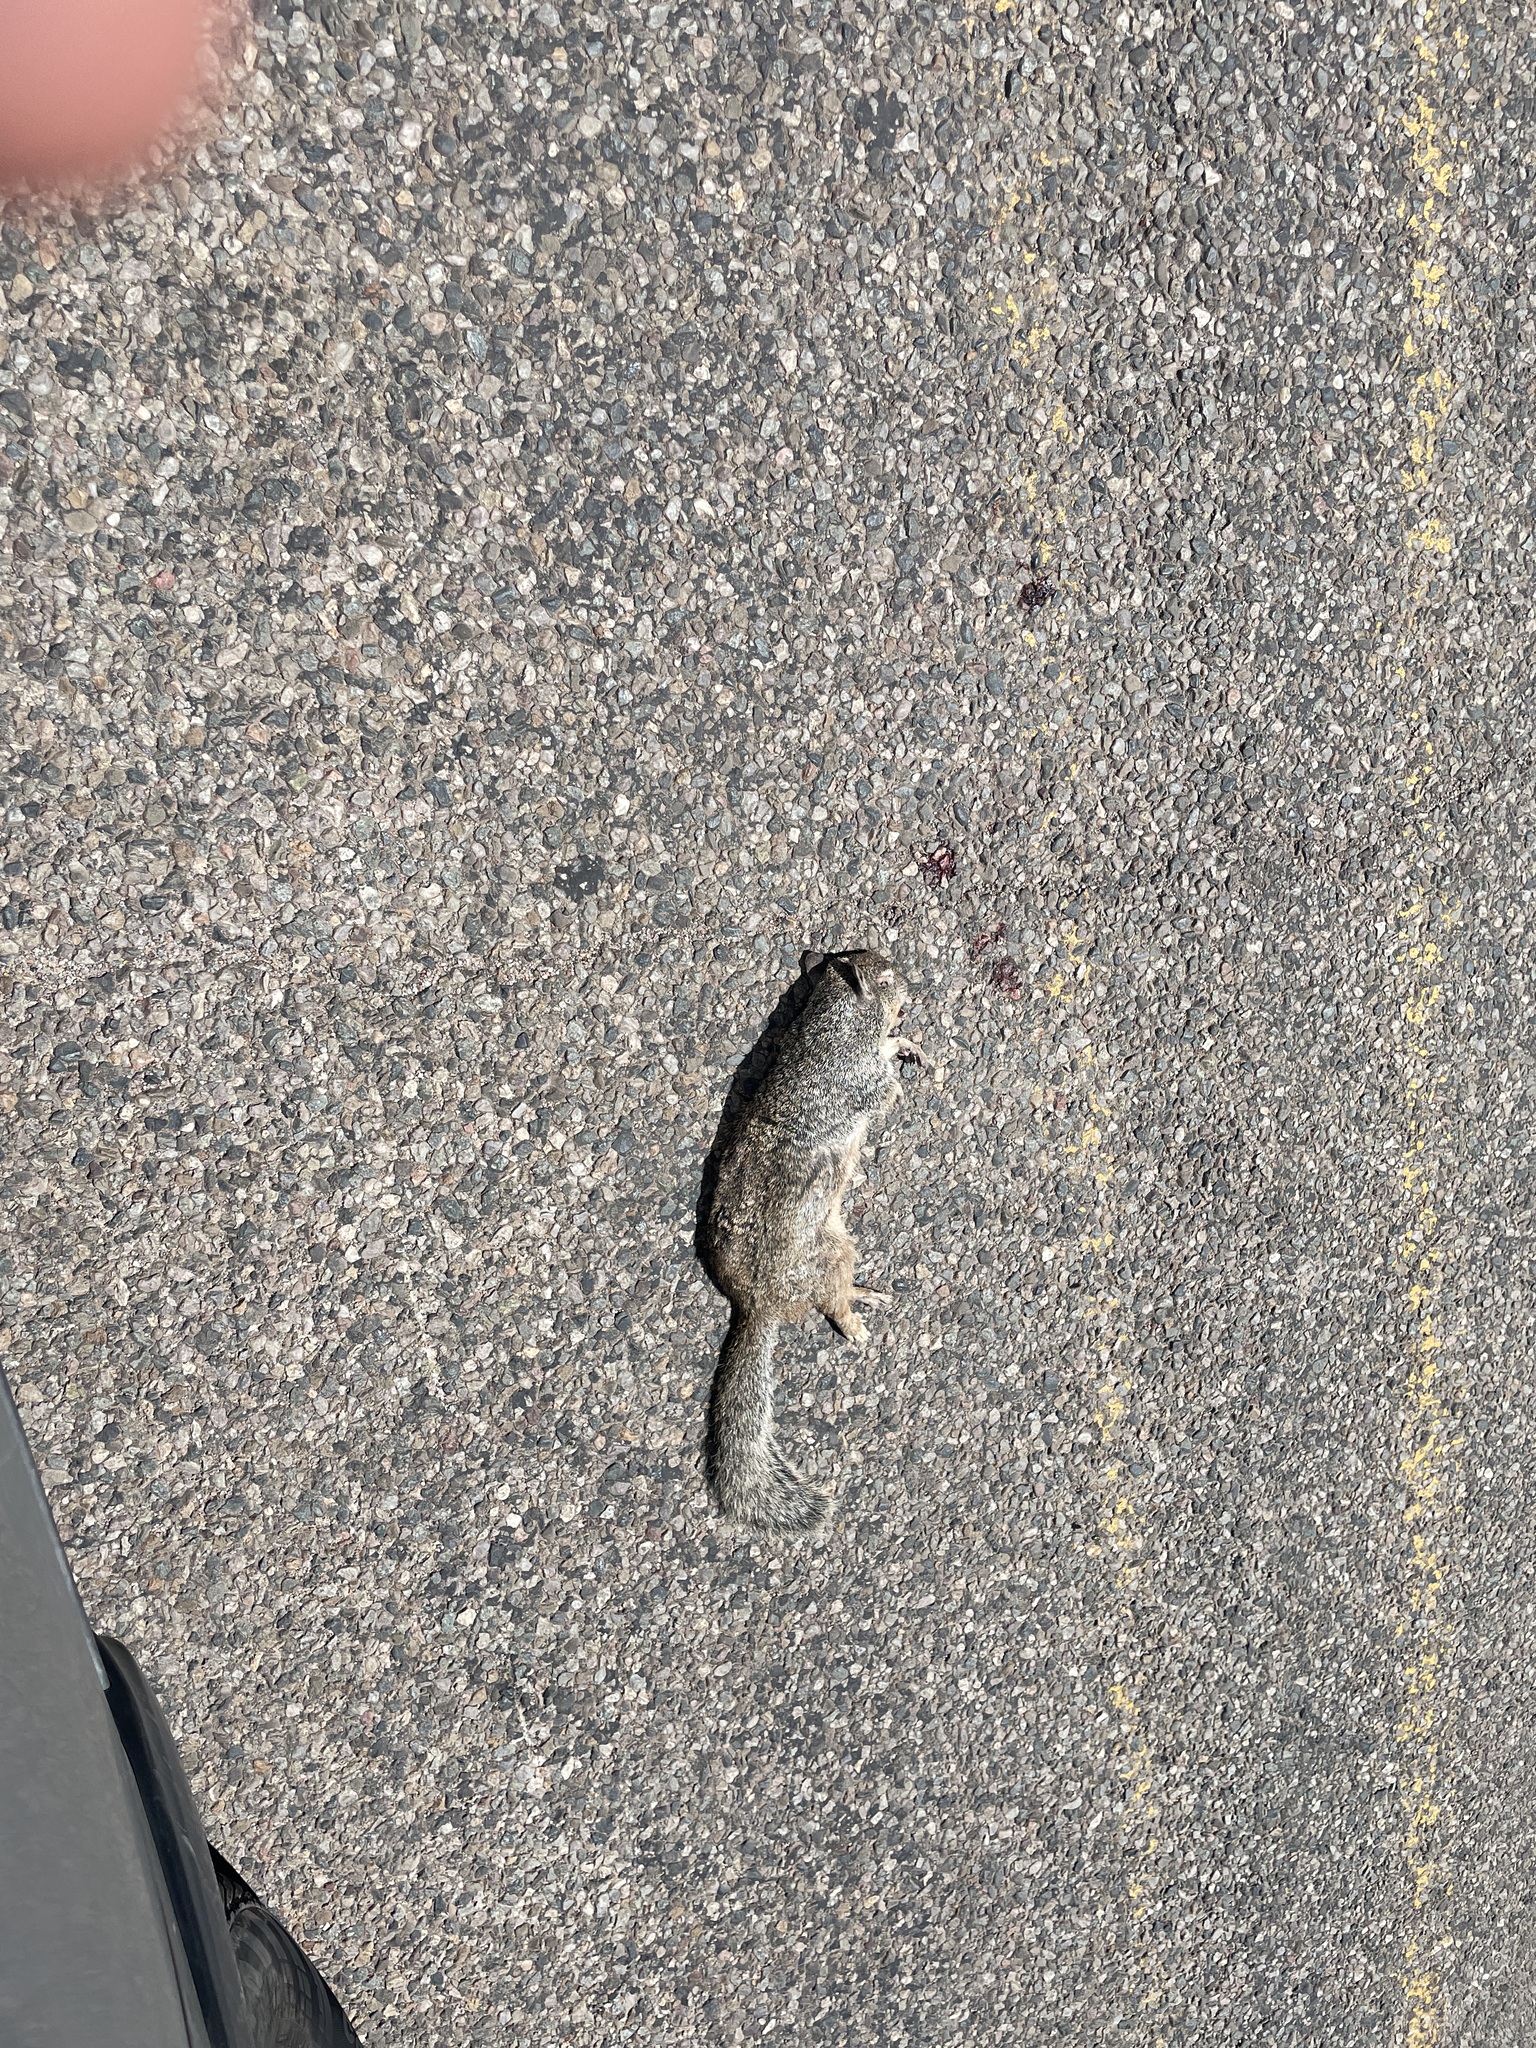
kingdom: Animalia
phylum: Chordata
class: Mammalia
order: Rodentia
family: Sciuridae
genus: Otospermophilus
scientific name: Otospermophilus variegatus
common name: Rock squirrel
